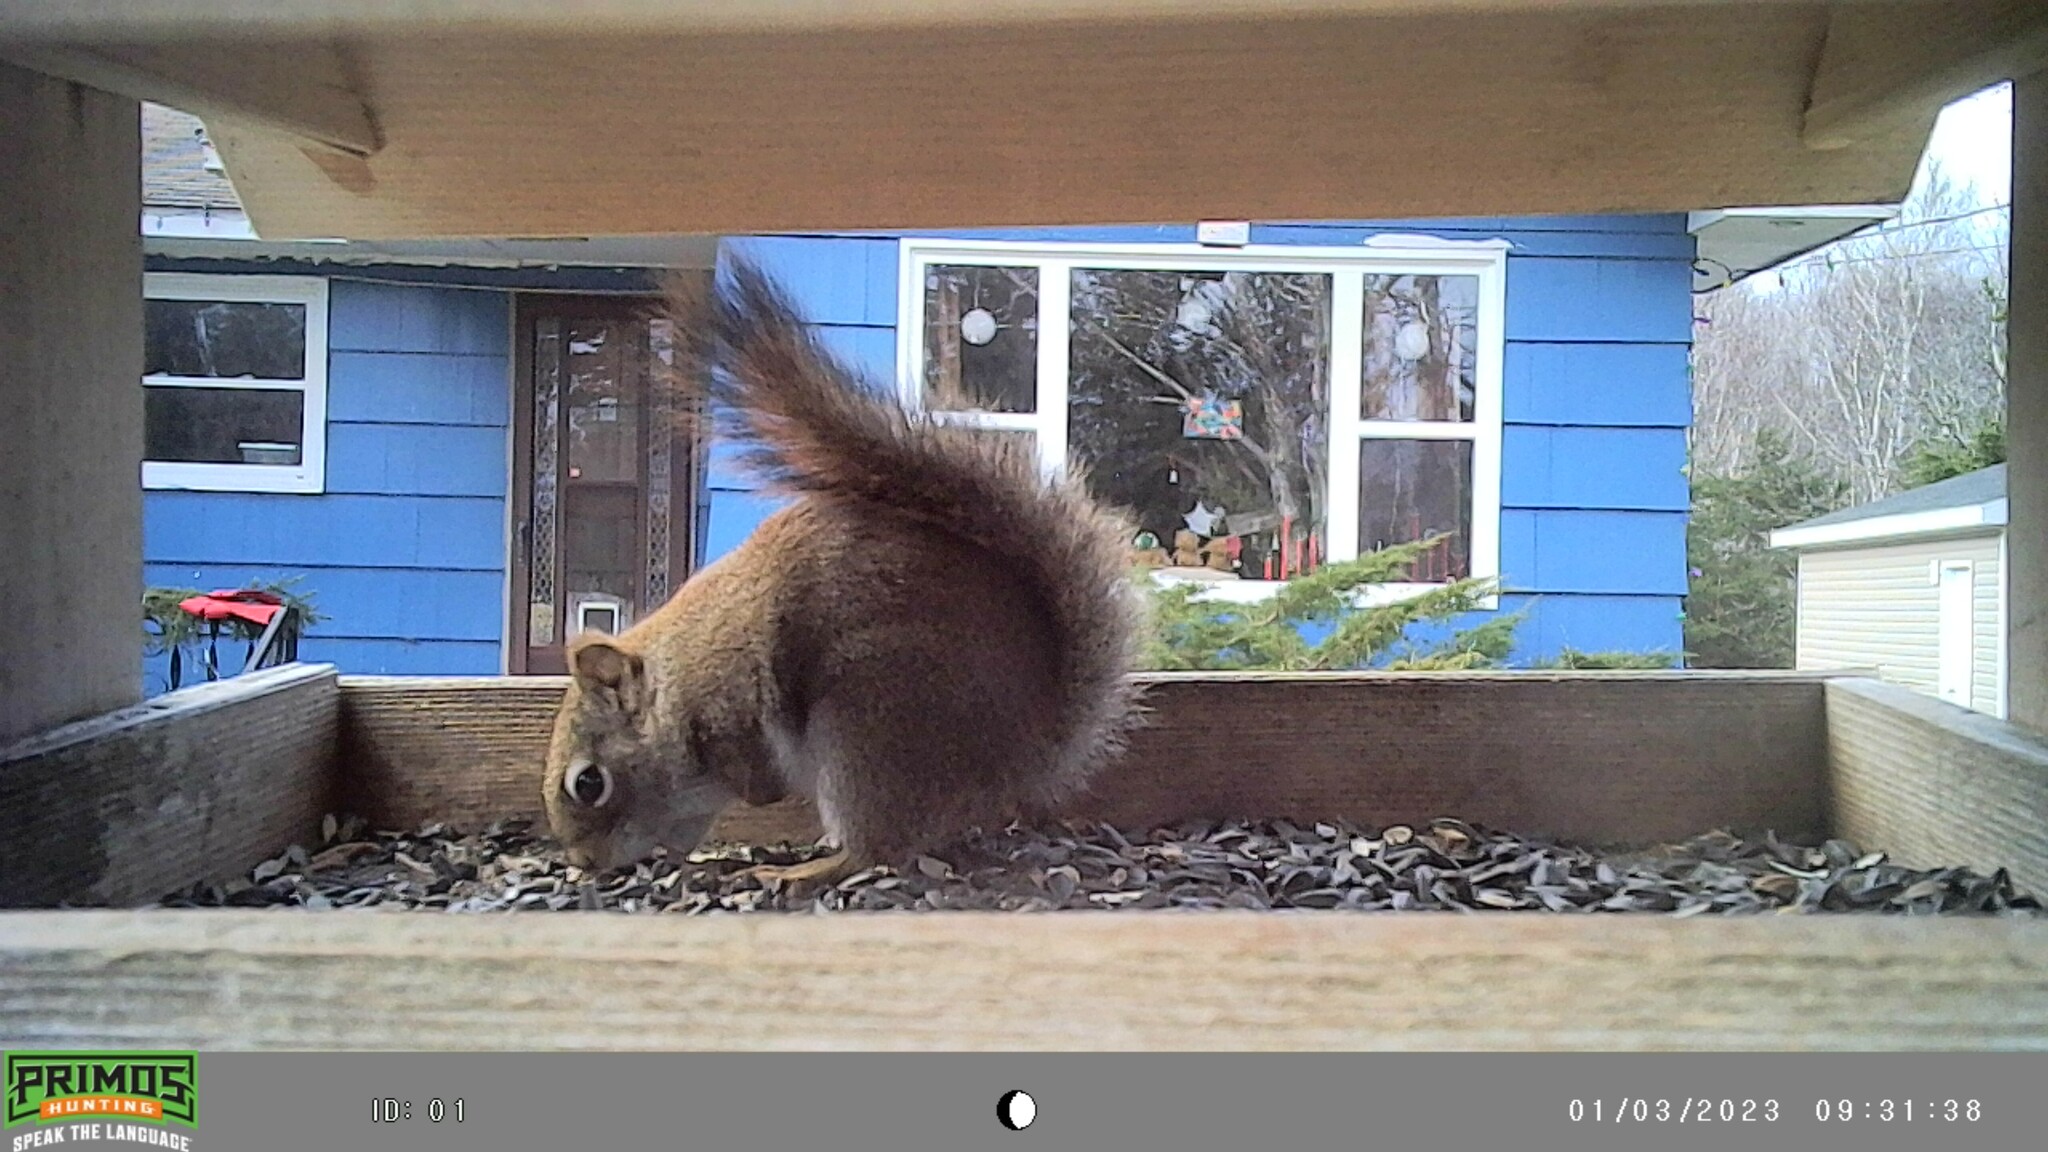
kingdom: Animalia
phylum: Chordata
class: Mammalia
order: Rodentia
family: Sciuridae
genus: Tamiasciurus
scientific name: Tamiasciurus hudsonicus
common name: Red squirrel
